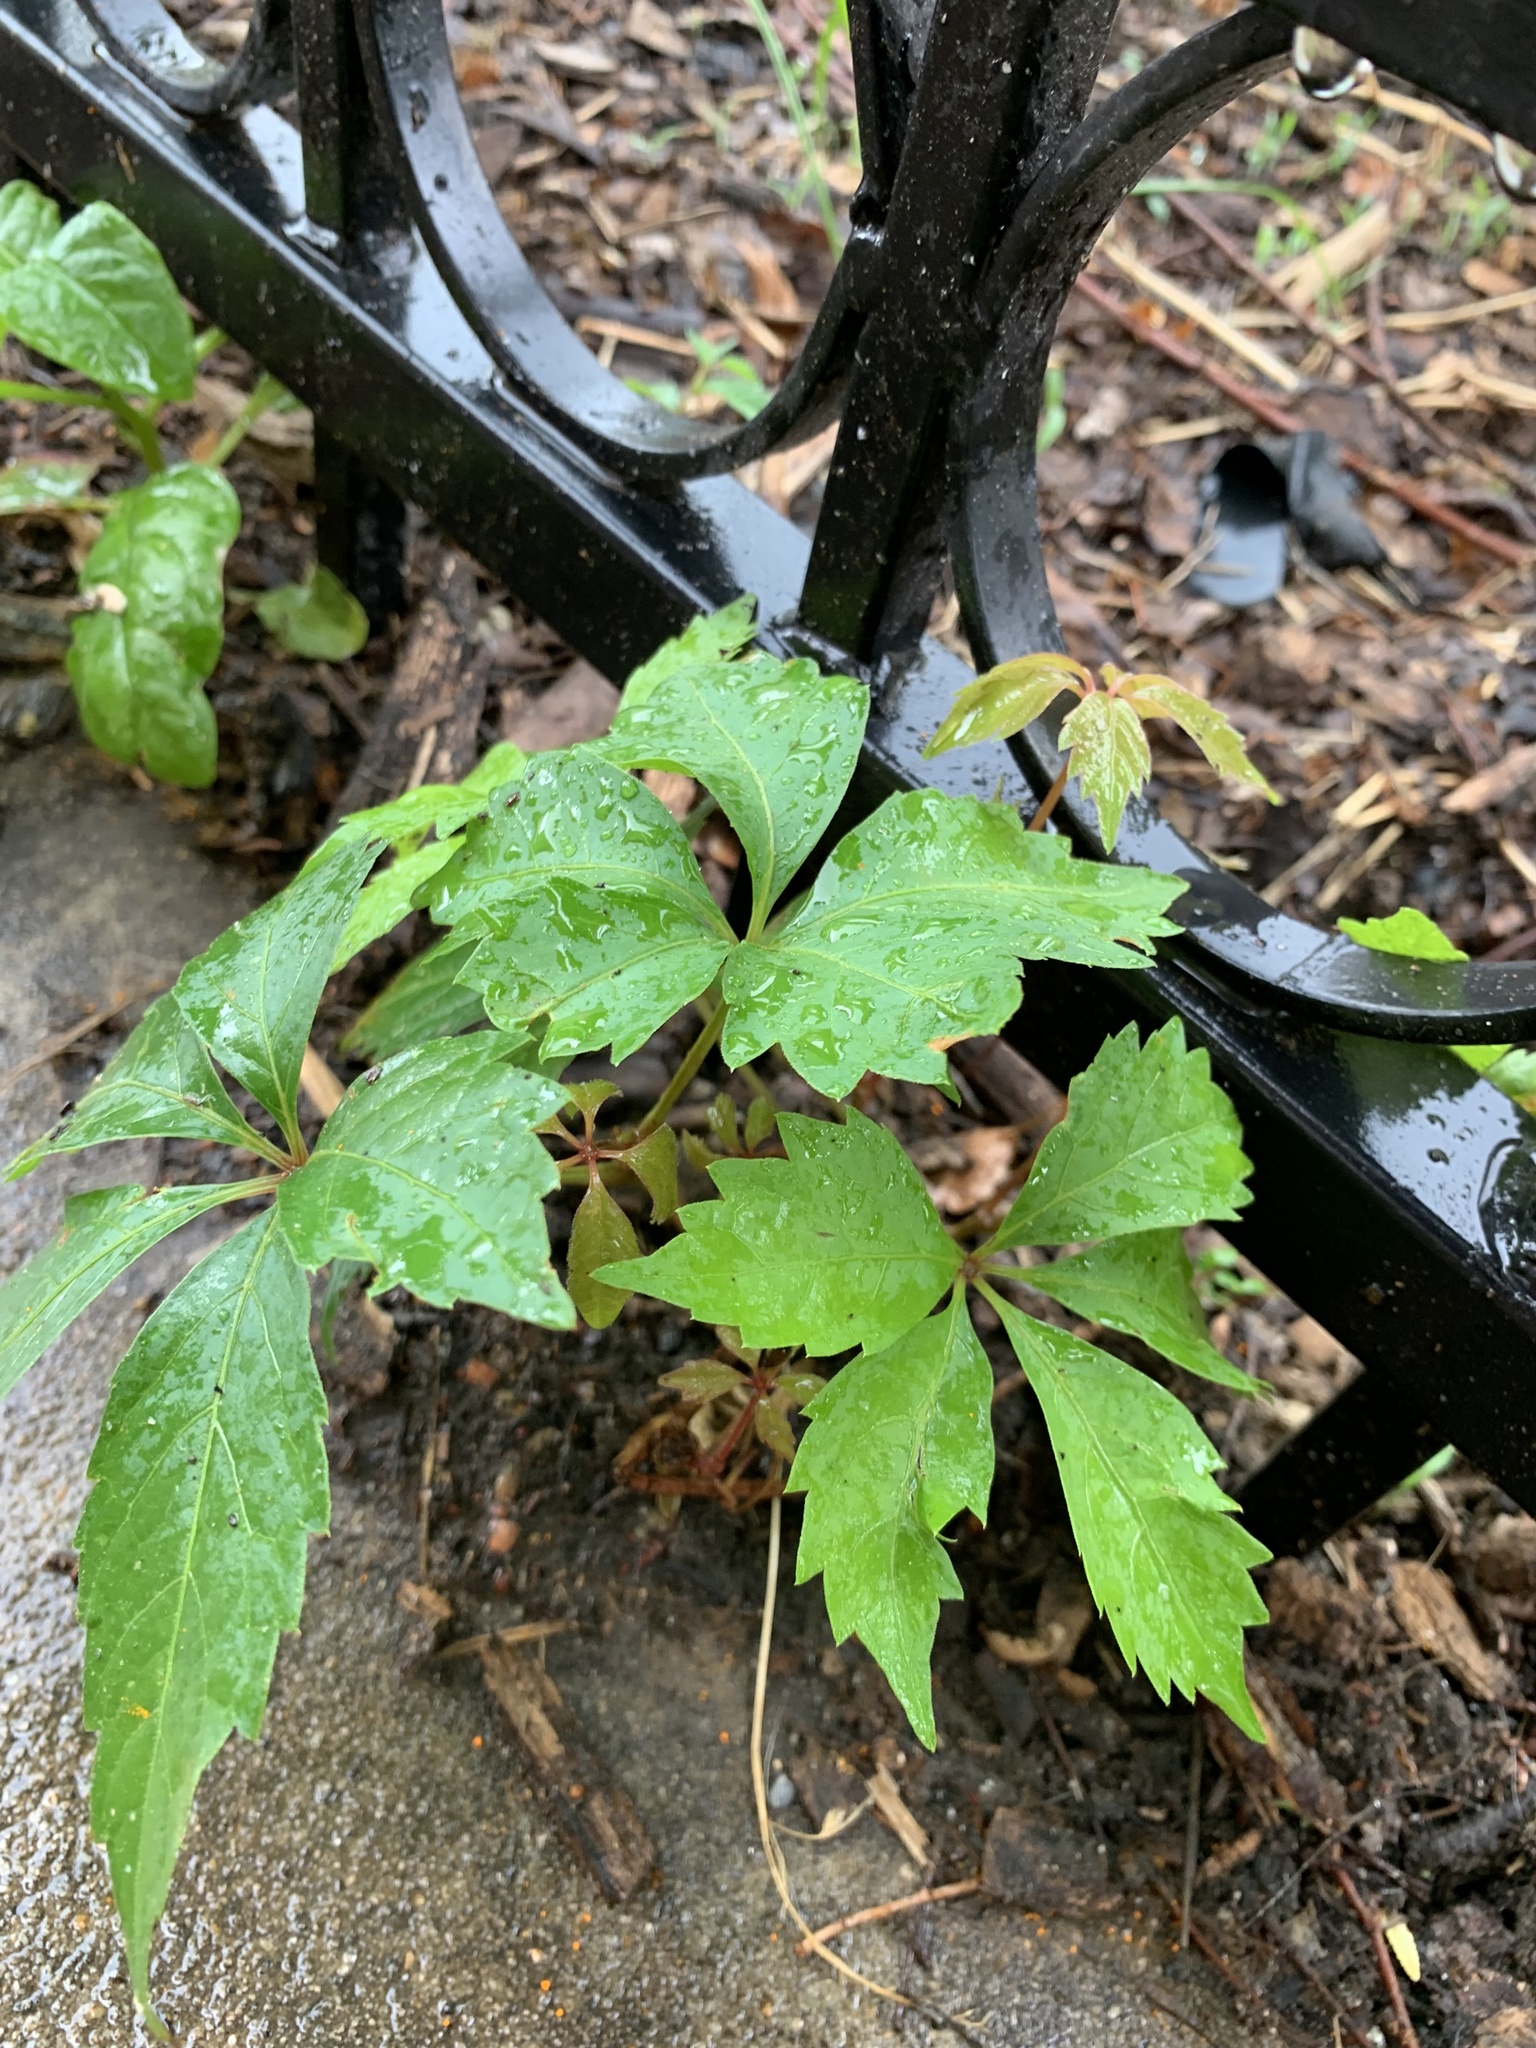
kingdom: Plantae
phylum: Tracheophyta
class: Magnoliopsida
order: Vitales
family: Vitaceae
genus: Parthenocissus
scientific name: Parthenocissus quinquefolia
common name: Virginia-creeper
